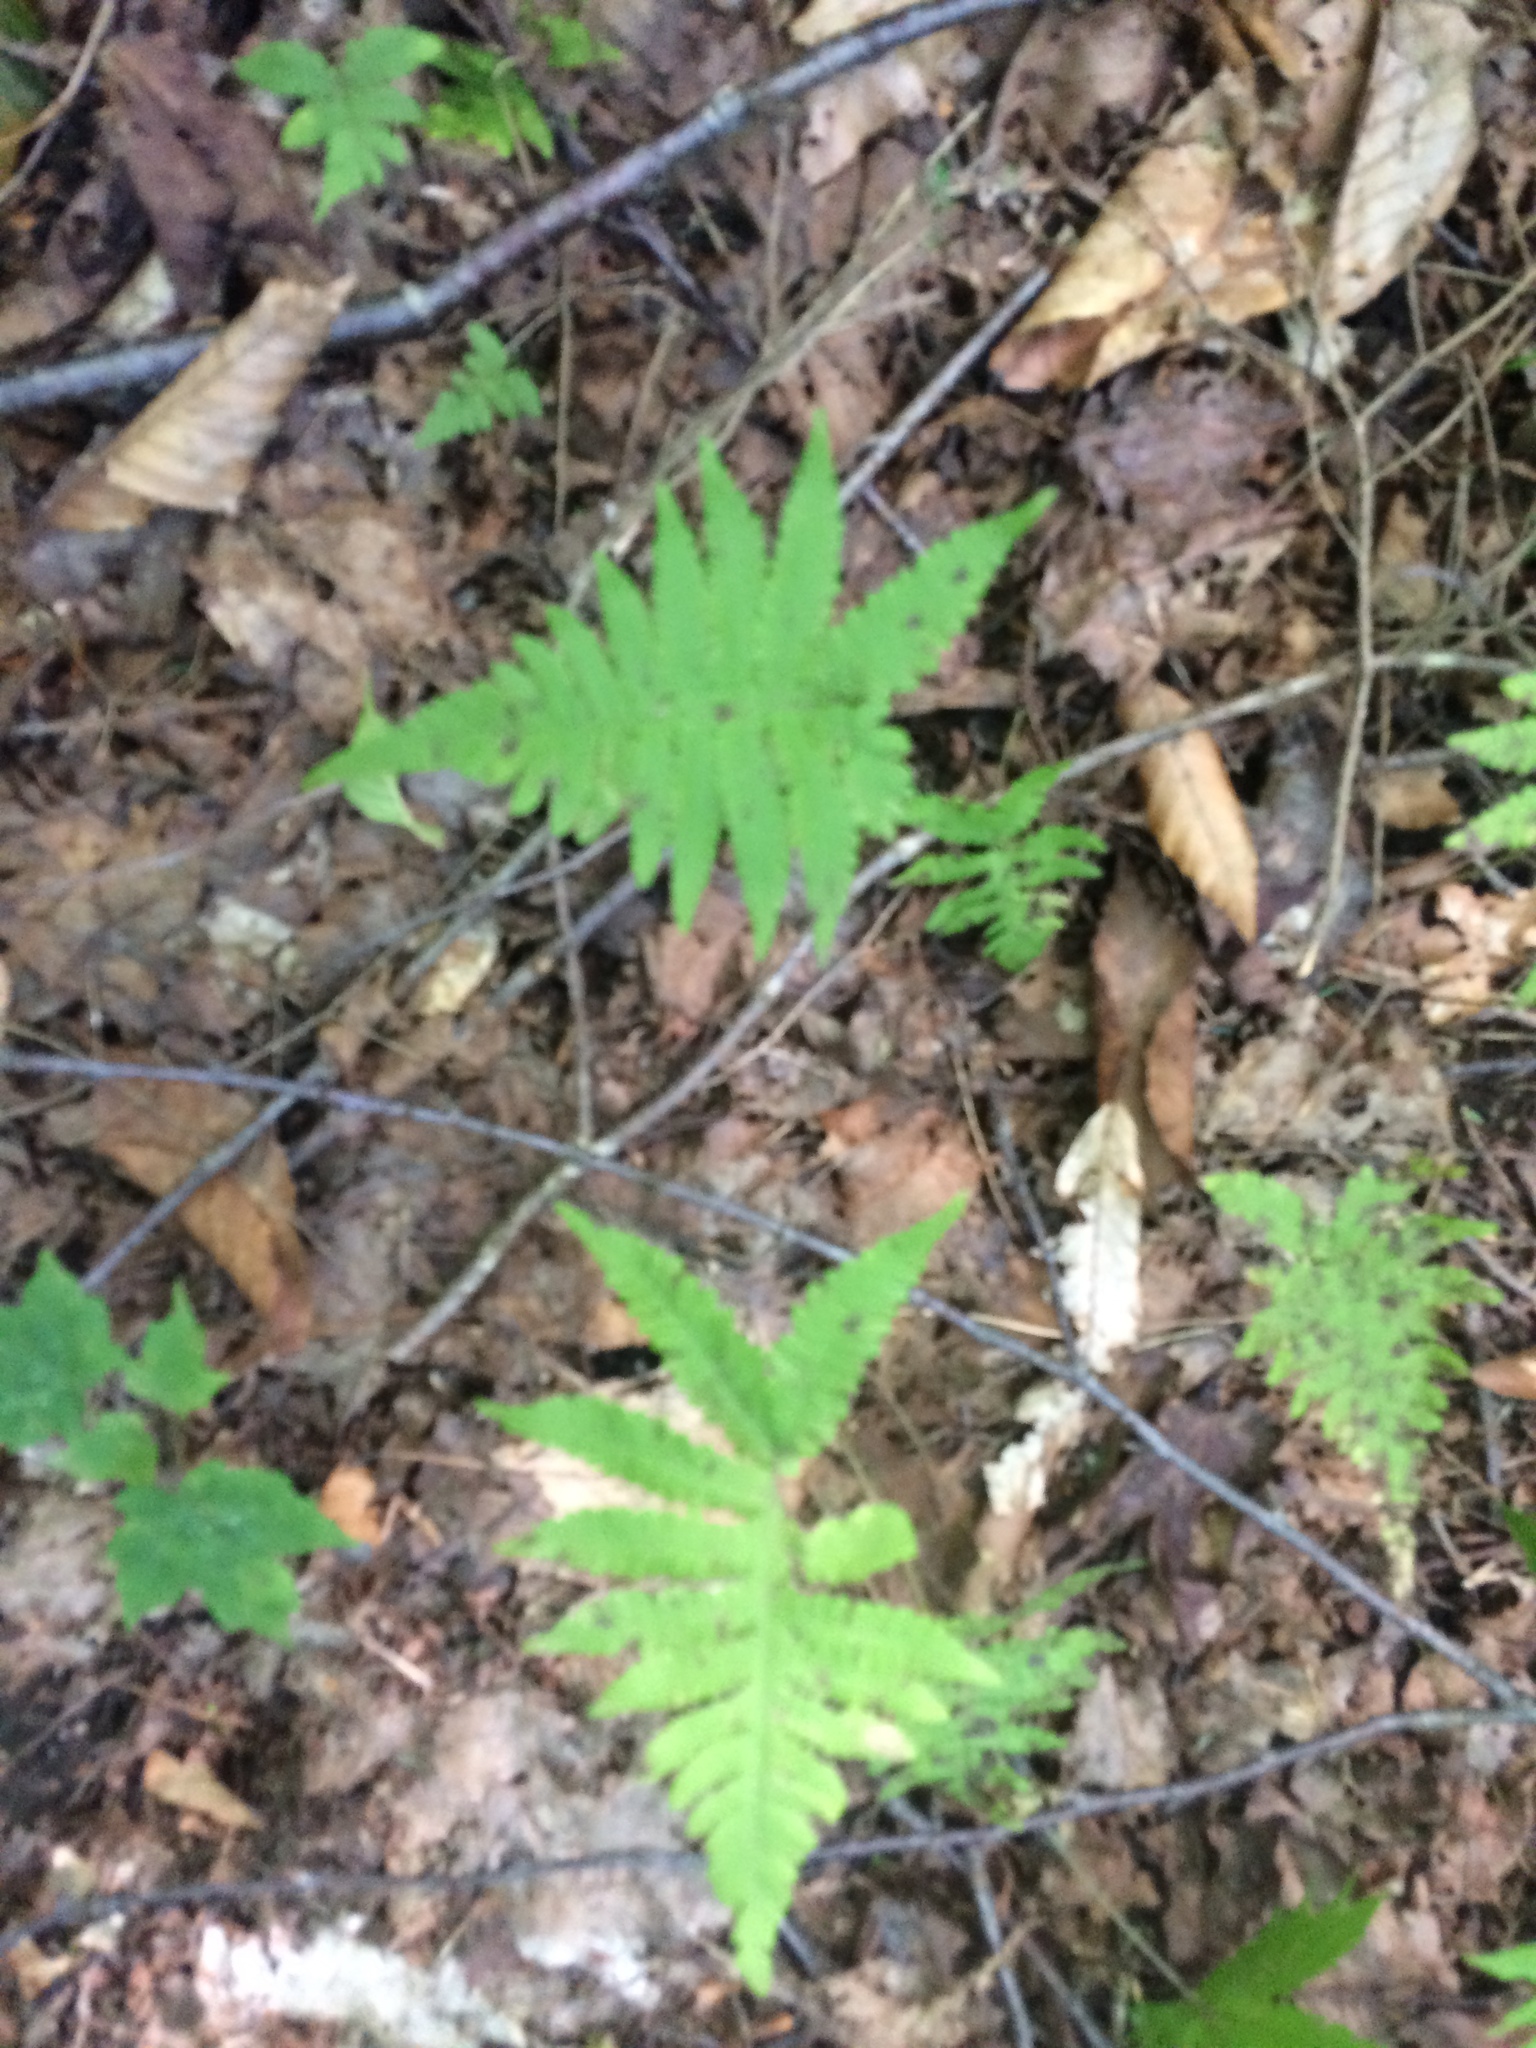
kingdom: Plantae
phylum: Tracheophyta
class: Polypodiopsida
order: Polypodiales
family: Thelypteridaceae
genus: Phegopteris
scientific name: Phegopteris connectilis
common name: Beech fern
